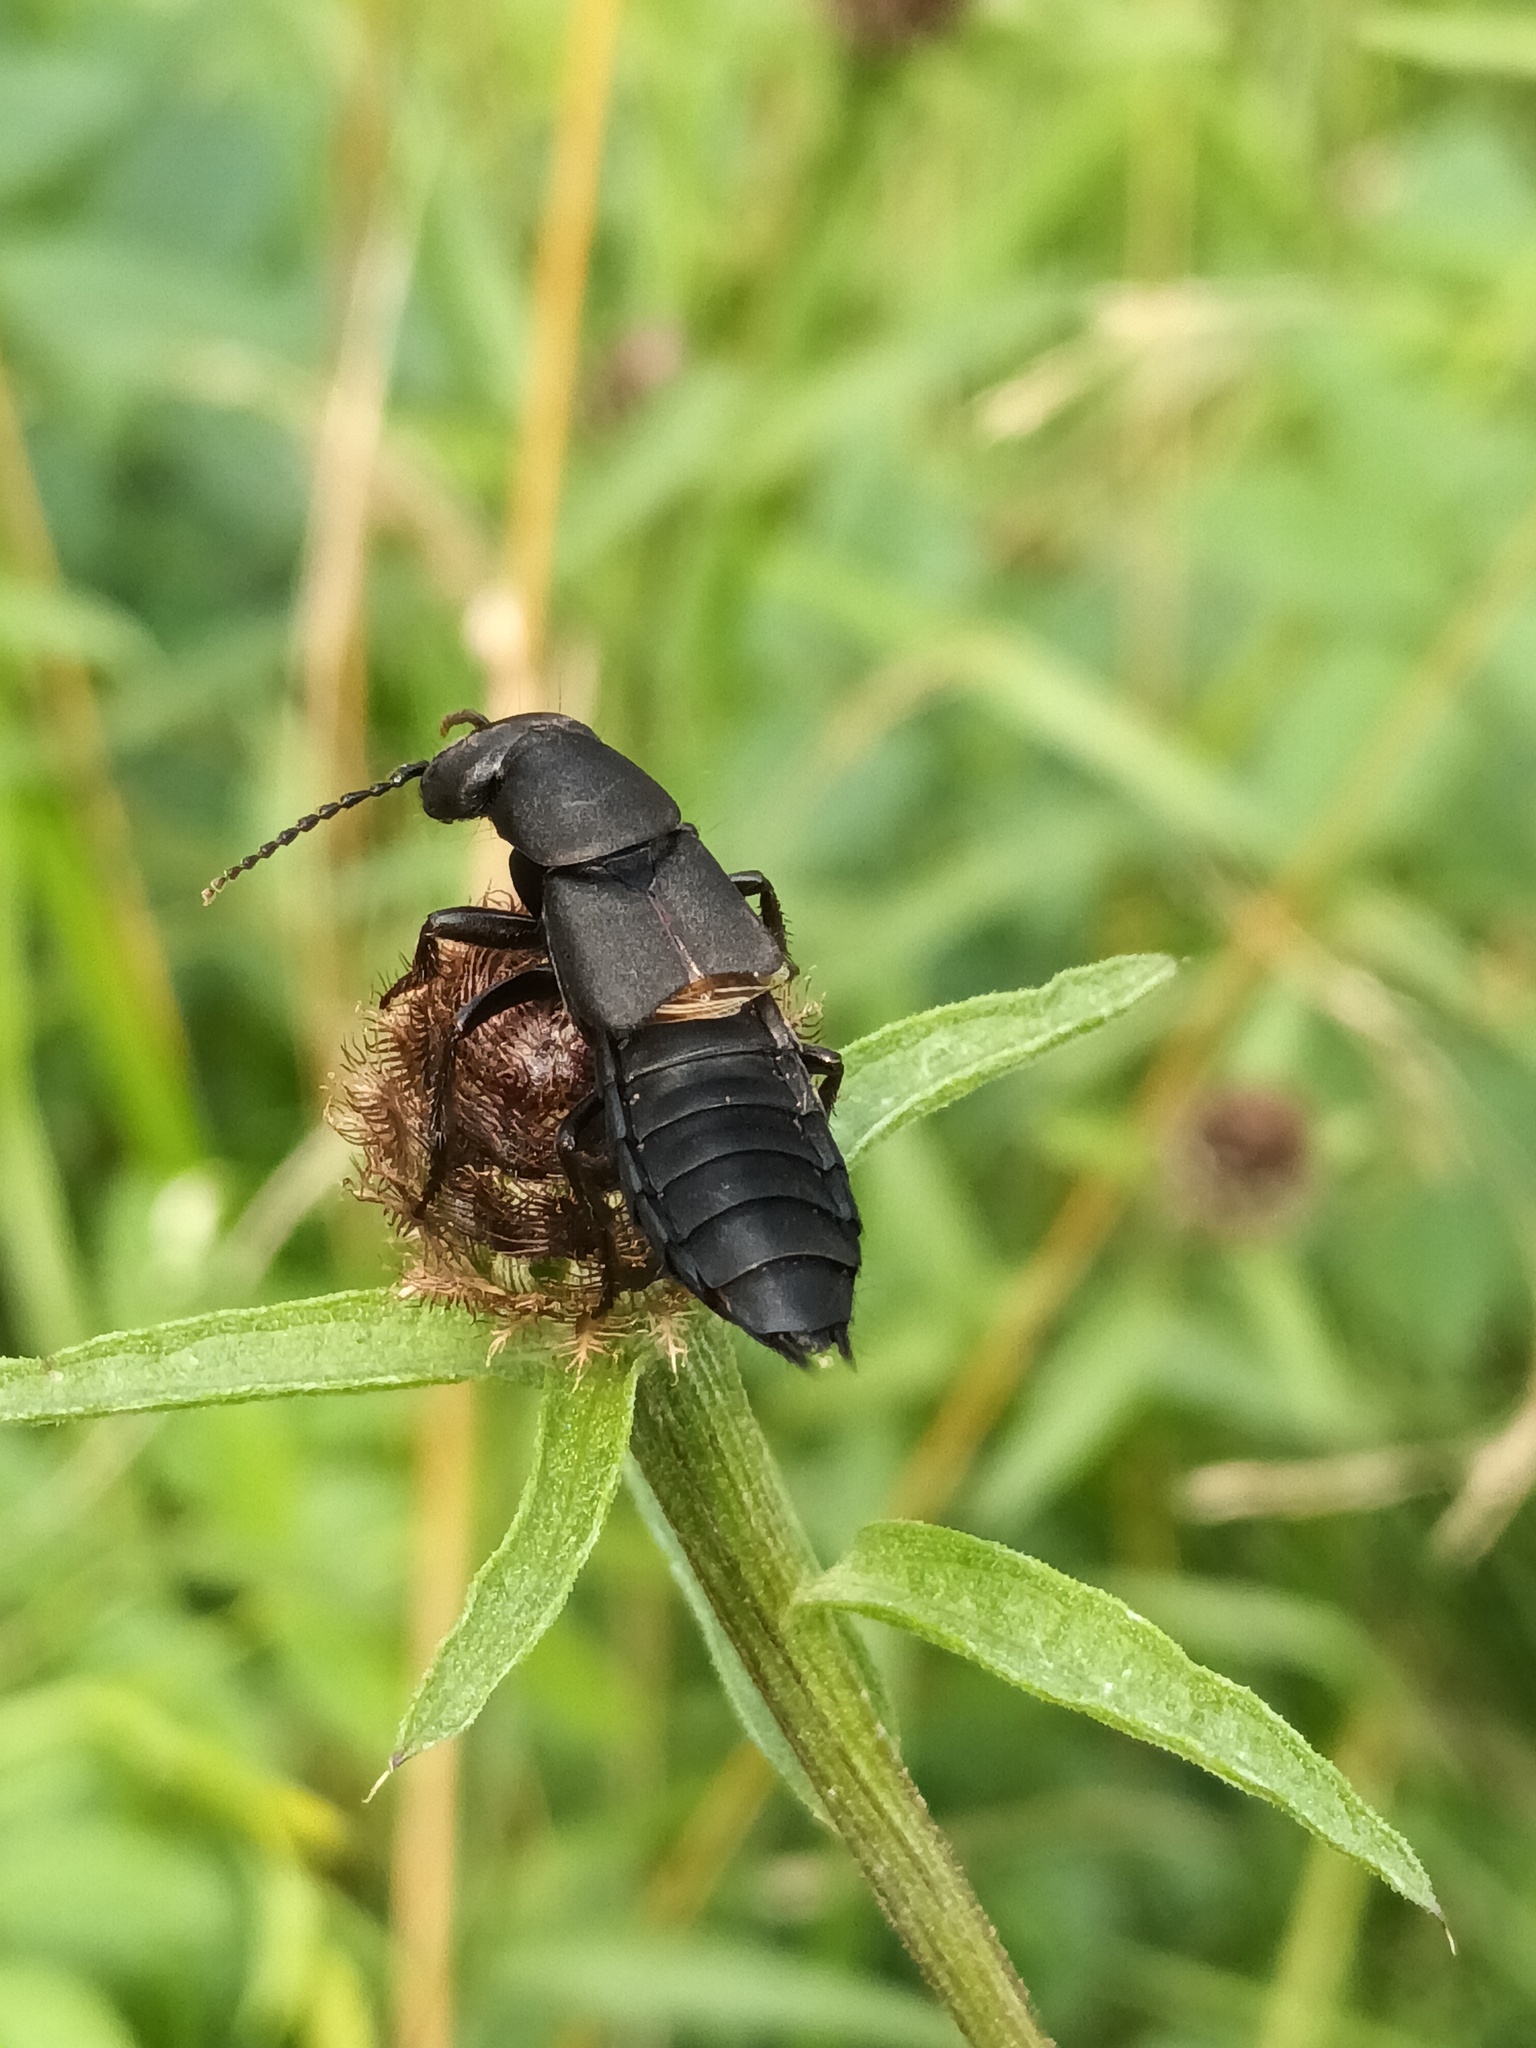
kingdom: Animalia
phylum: Arthropoda
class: Insecta
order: Coleoptera
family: Staphylinidae
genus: Ocypus
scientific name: Ocypus olens
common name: Devil's coach-horse
